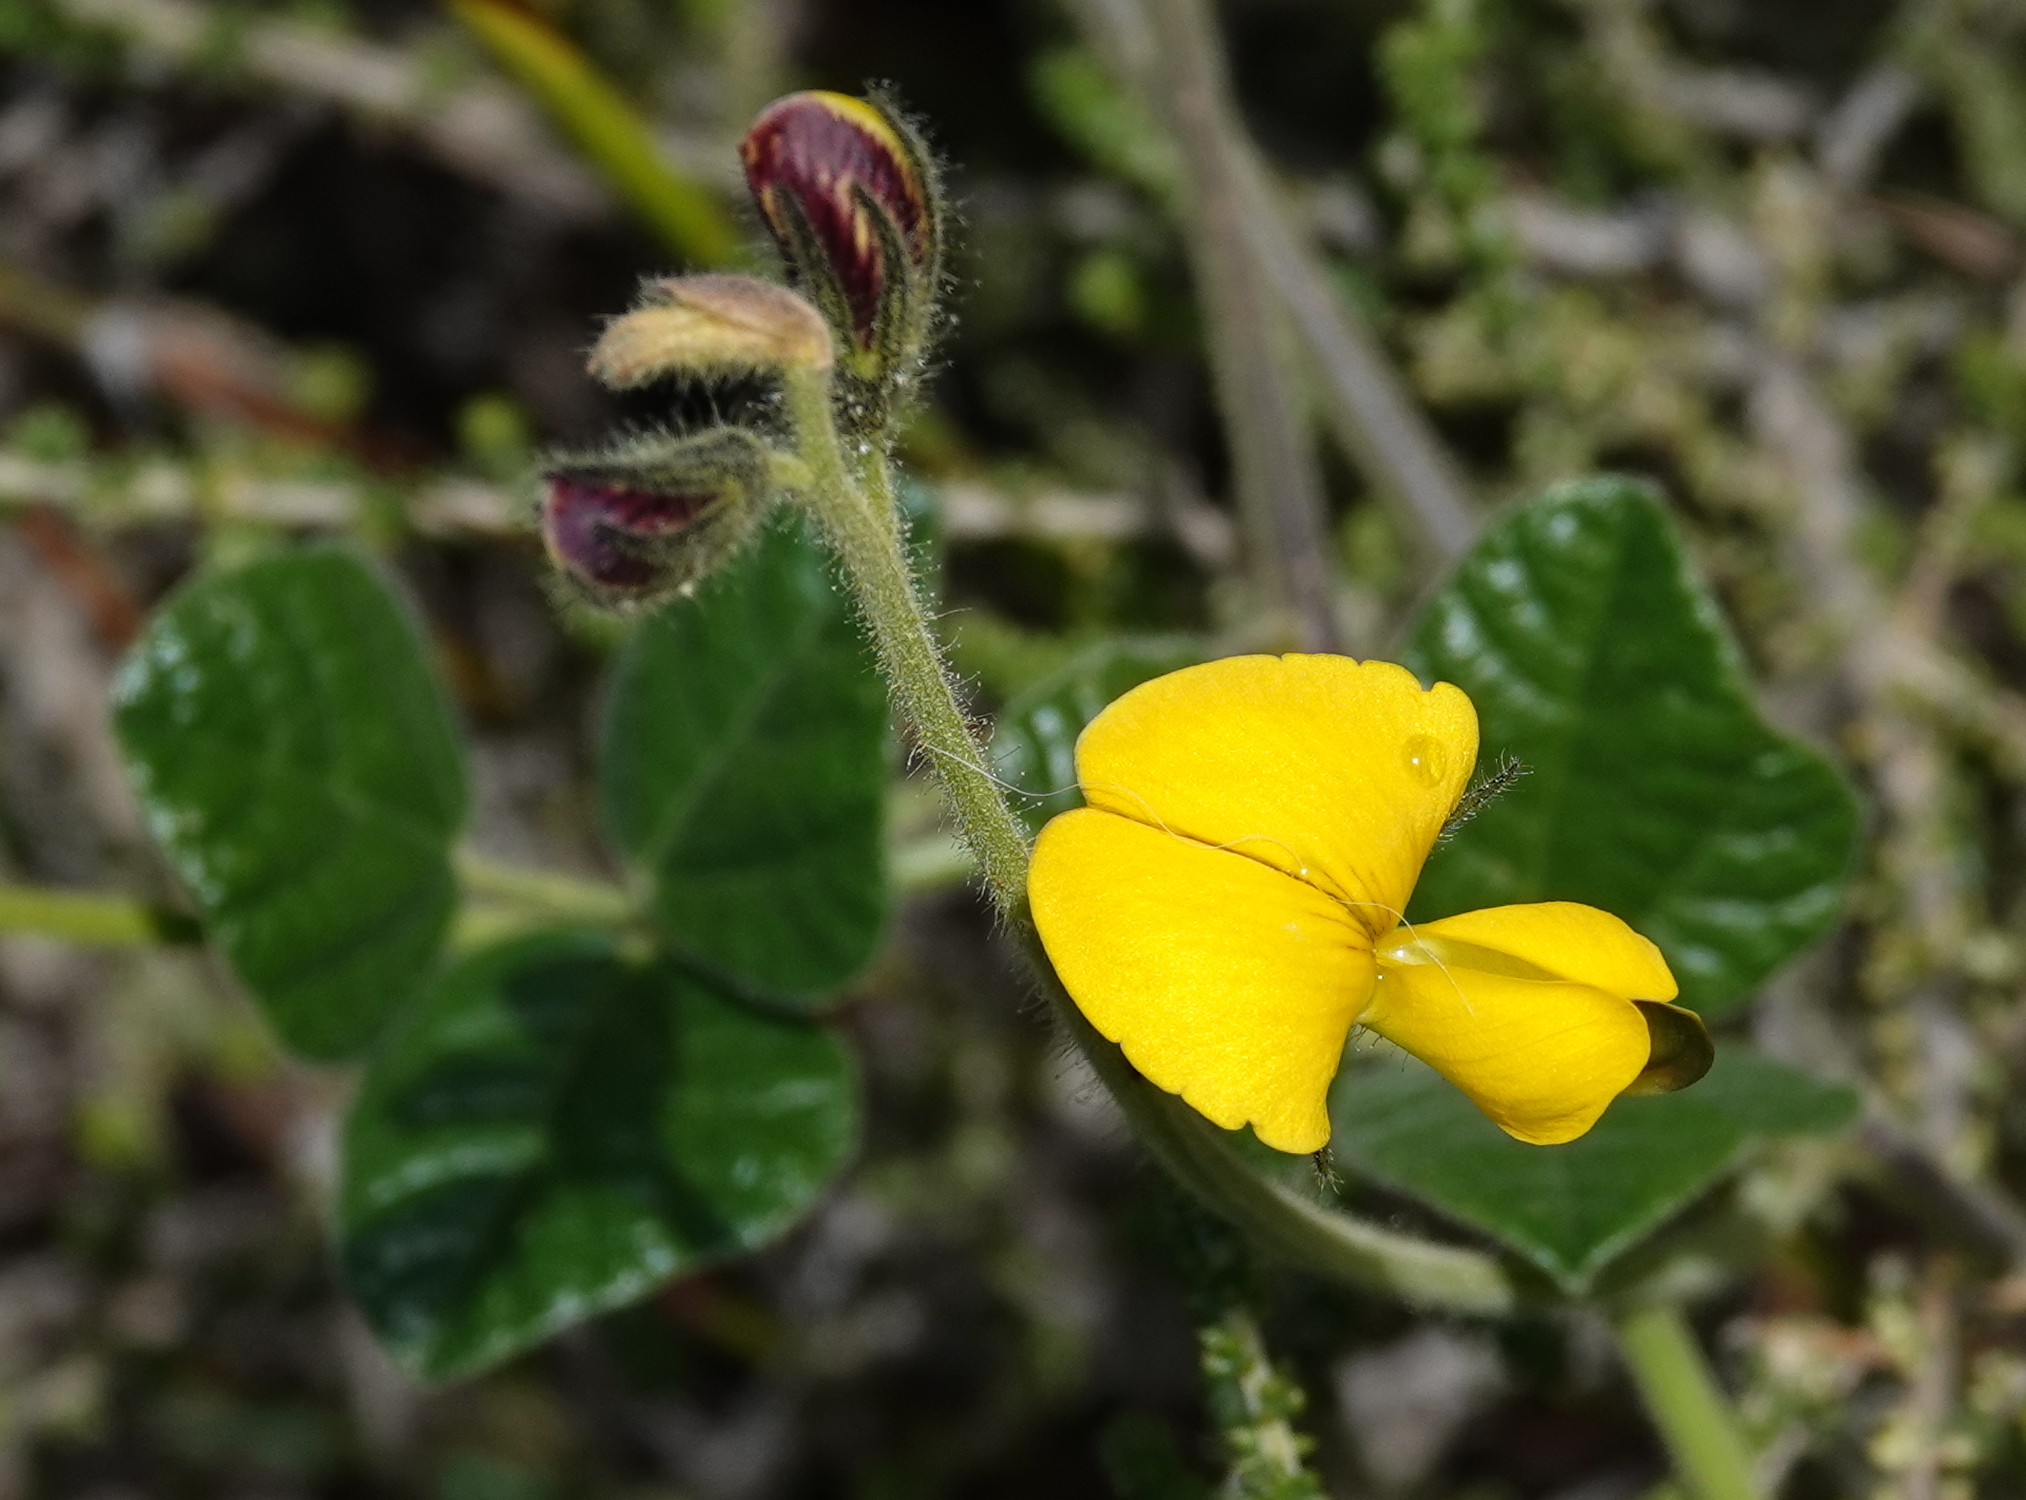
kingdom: Plantae
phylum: Tracheophyta
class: Magnoliopsida
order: Fabales
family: Fabaceae
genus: Bolusafra
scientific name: Bolusafra bituminosa
